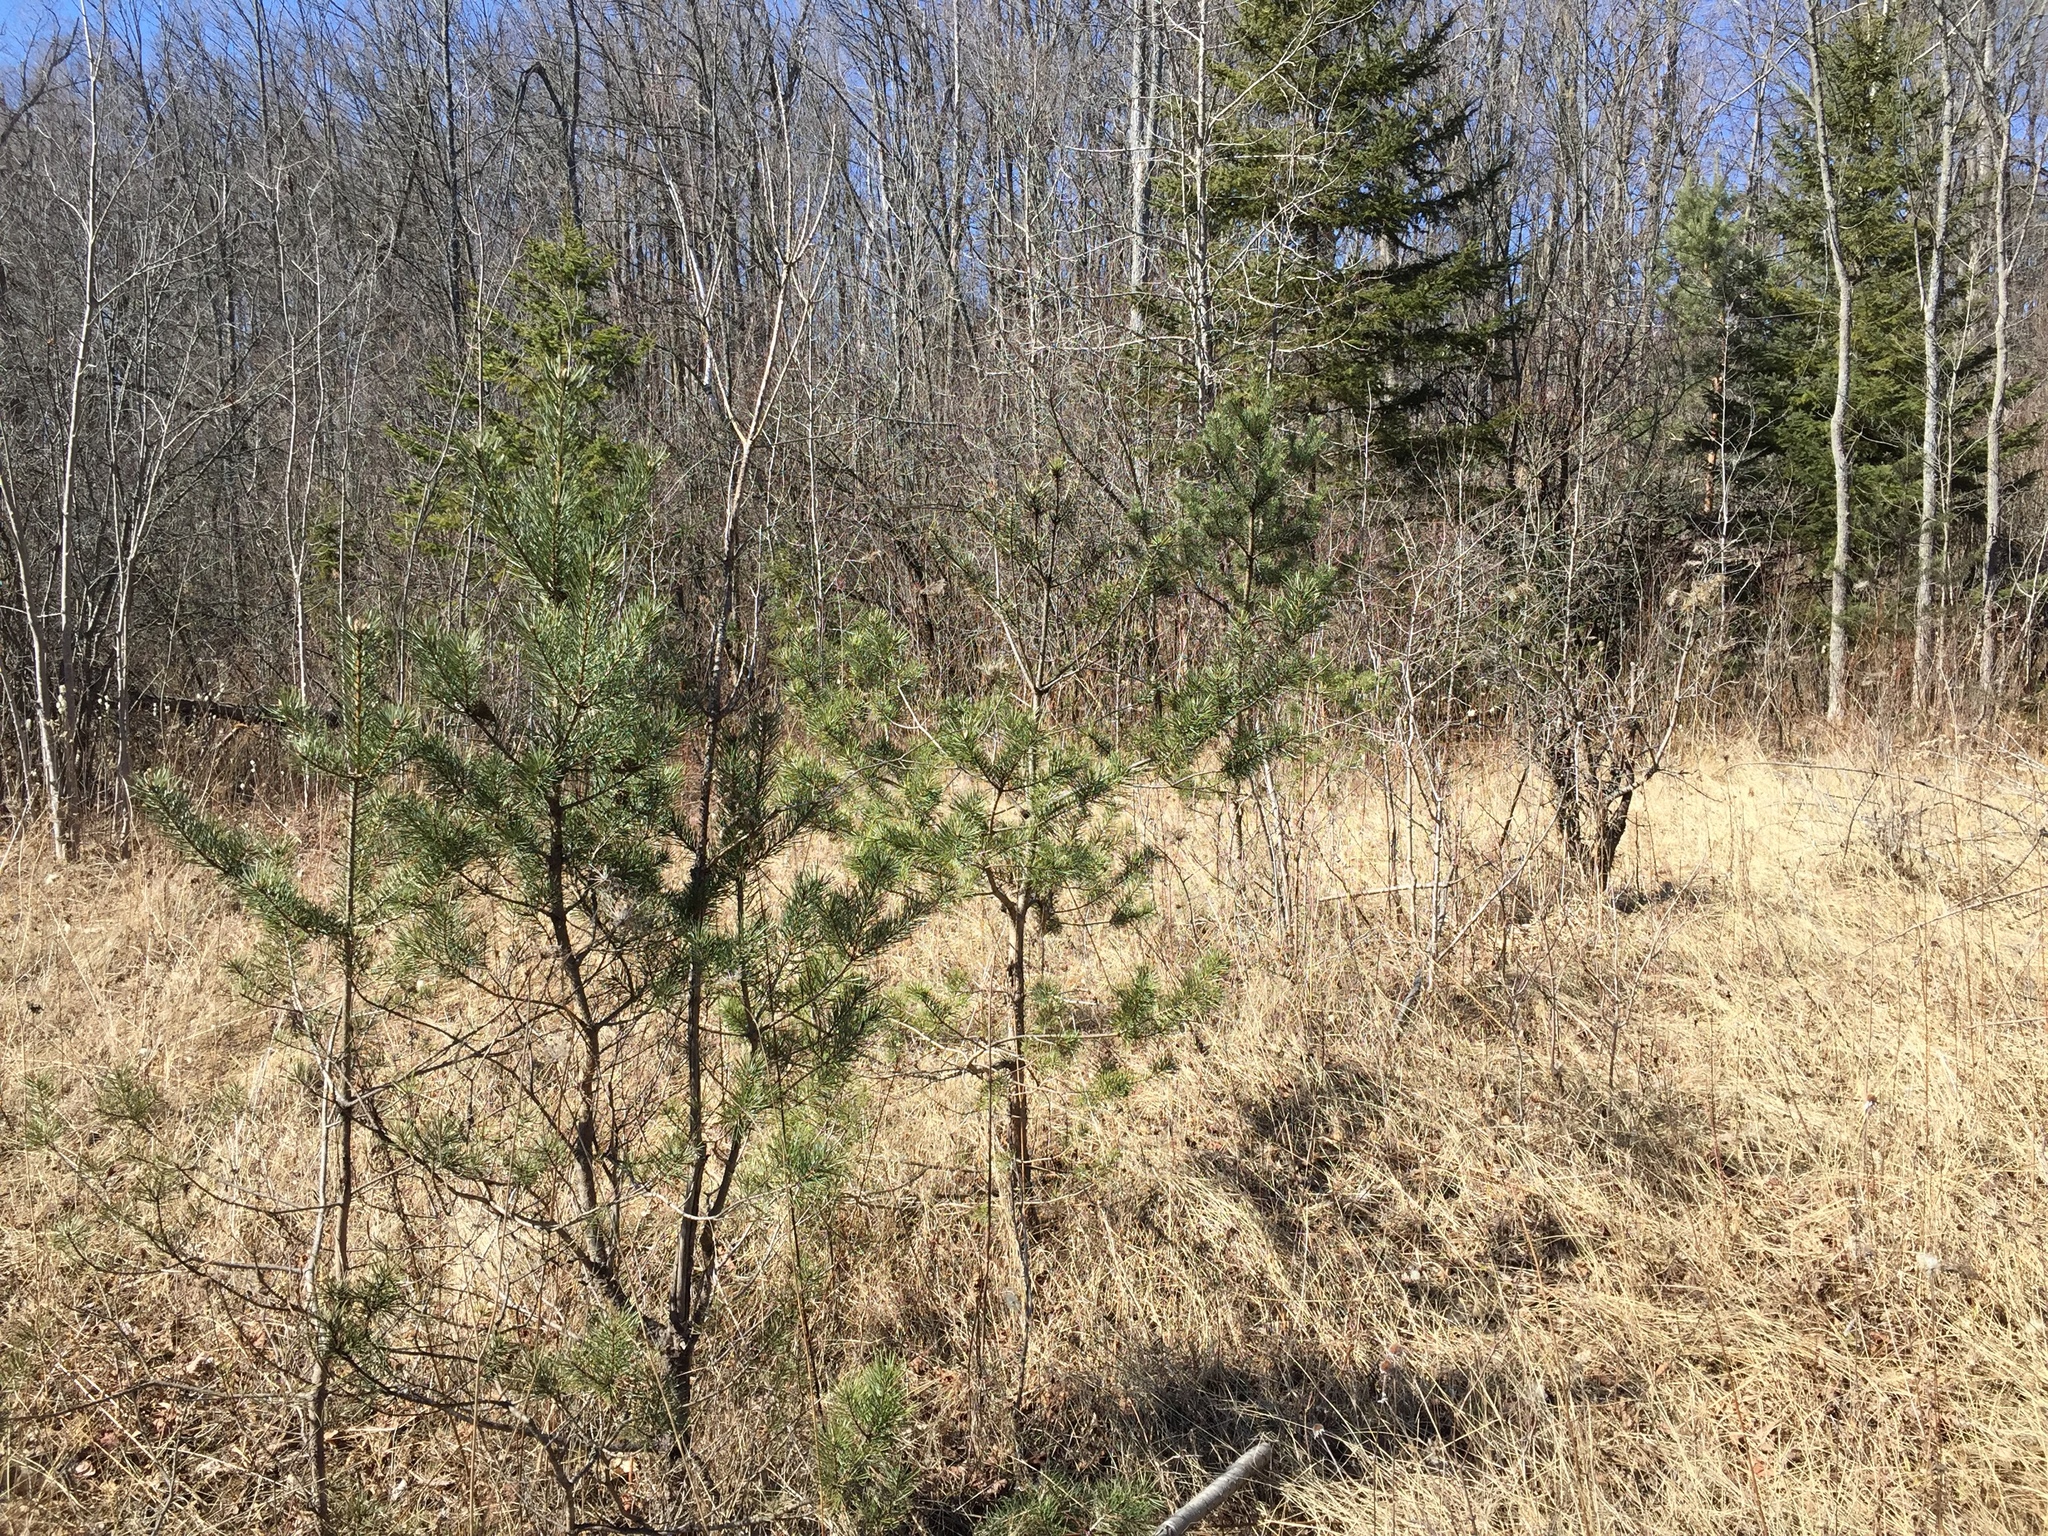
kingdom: Plantae
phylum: Tracheophyta
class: Pinopsida
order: Pinales
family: Pinaceae
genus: Pinus
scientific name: Pinus sylvestris
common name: Scots pine
